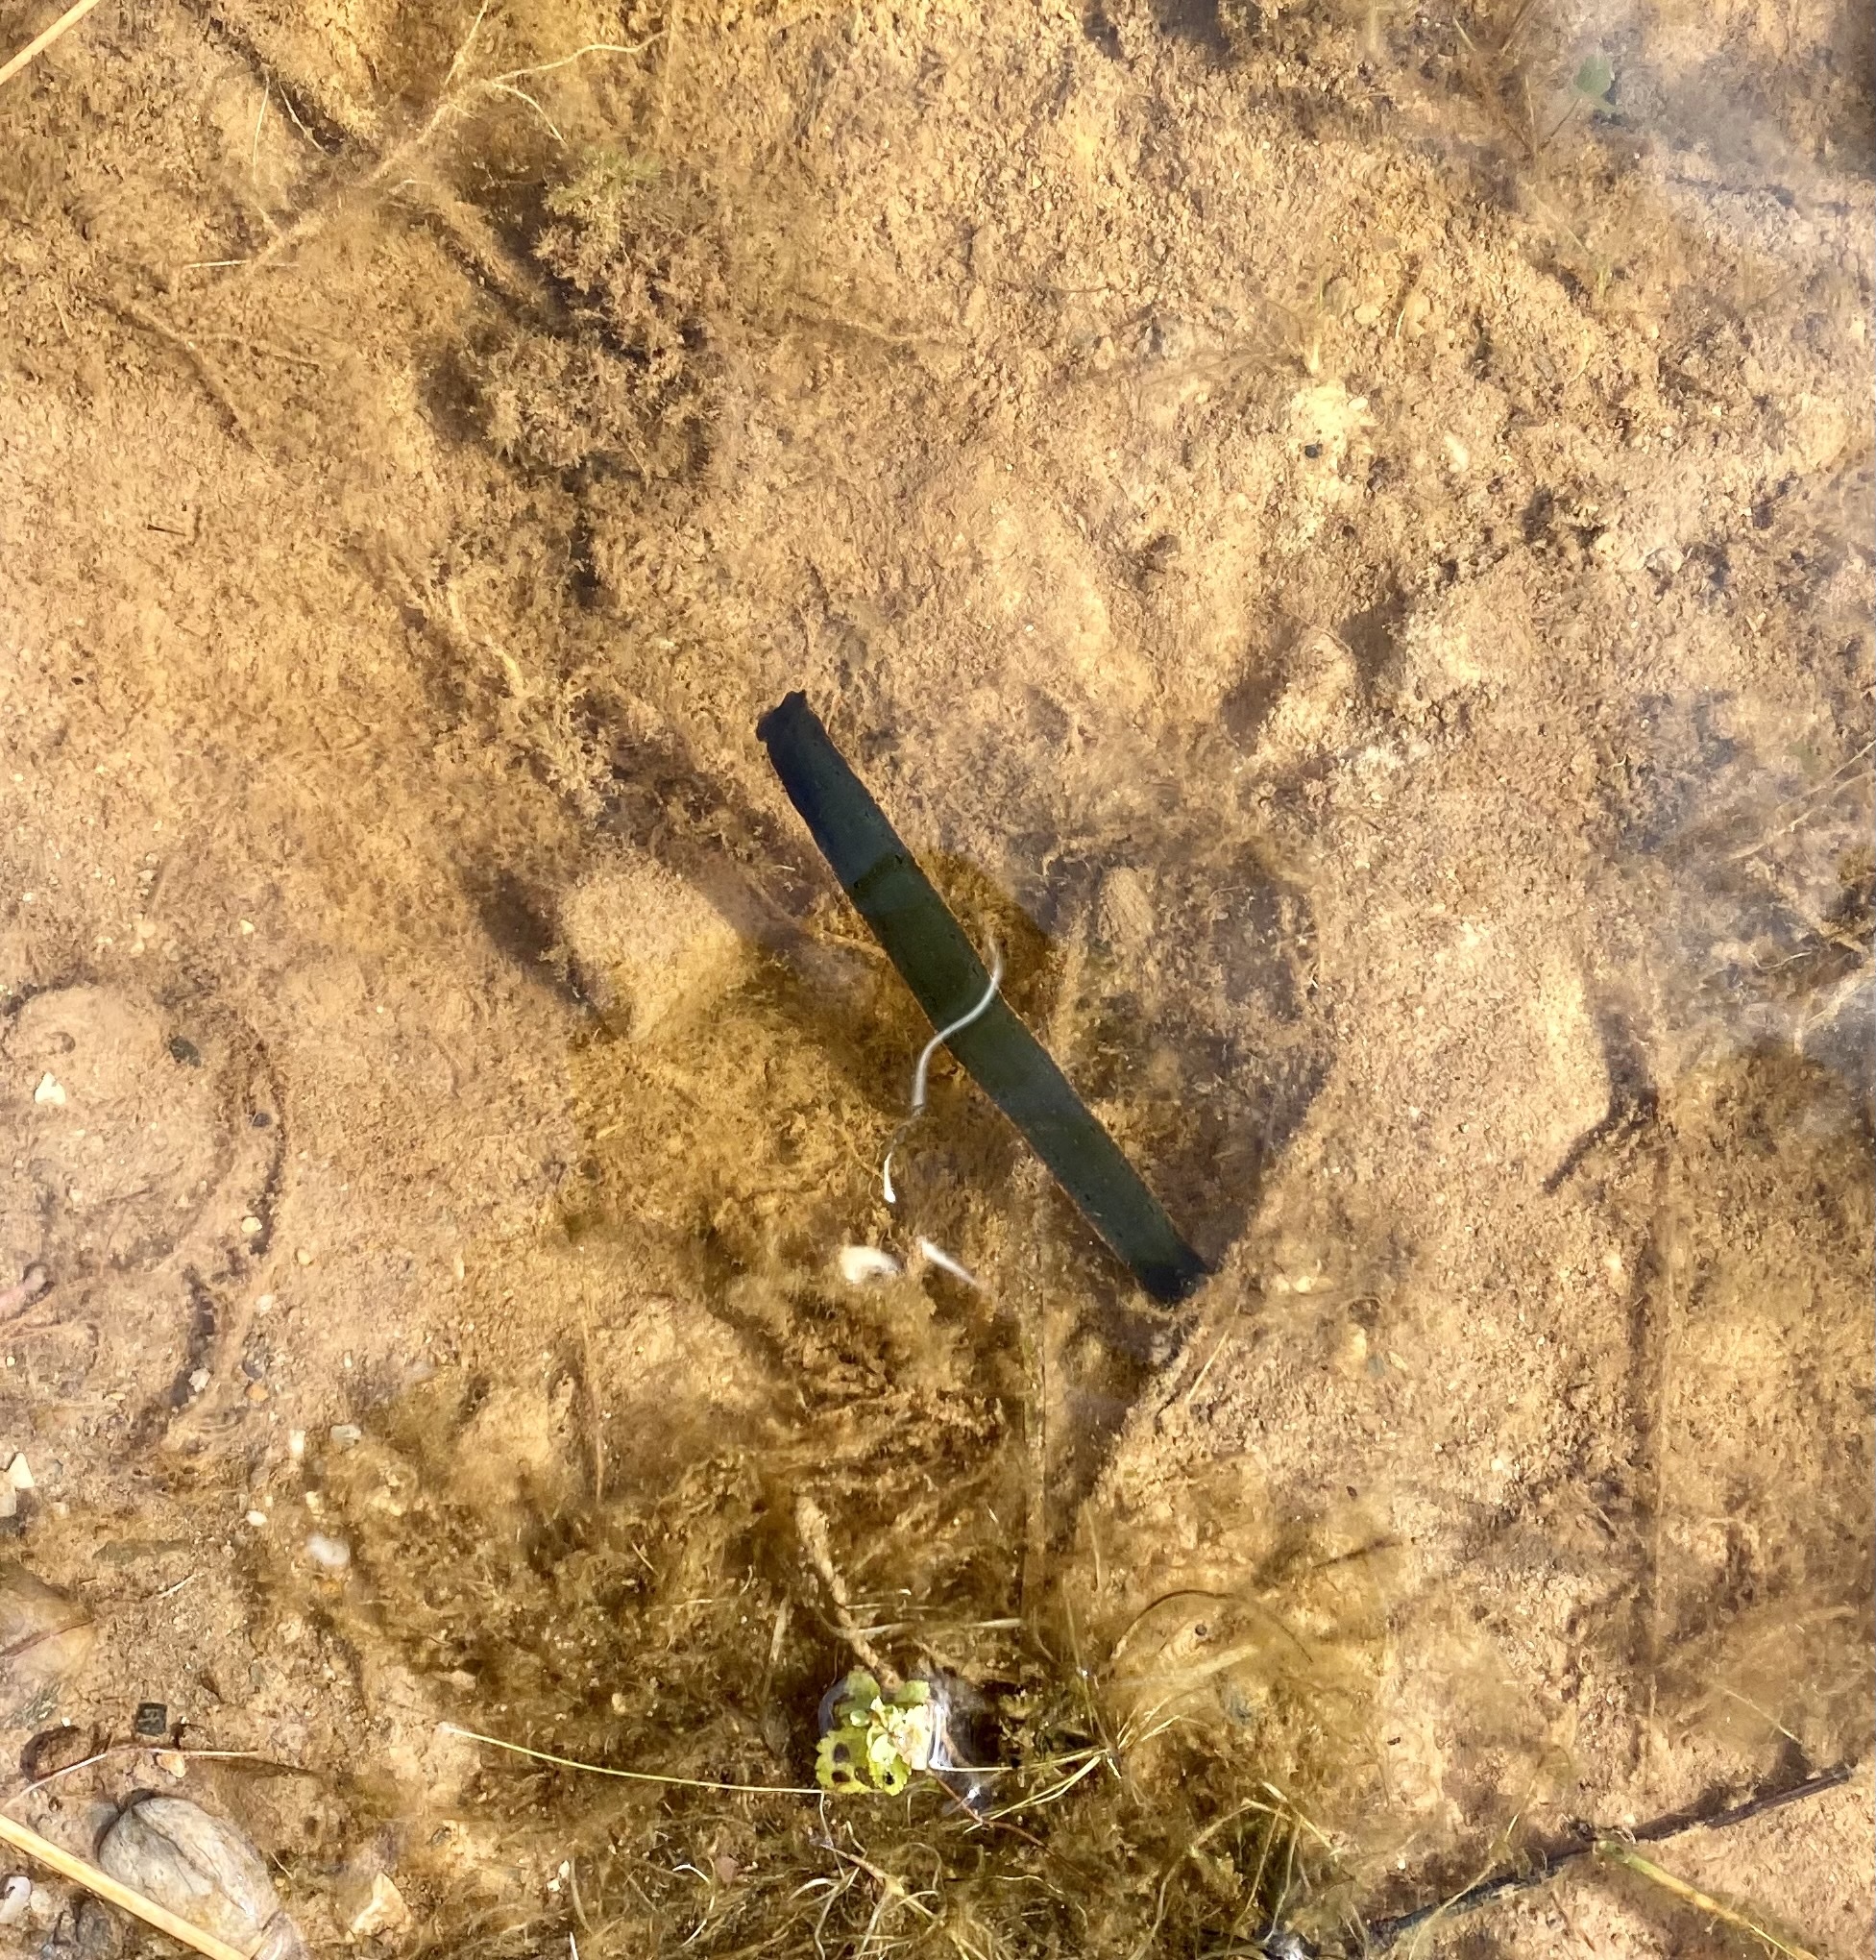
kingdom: Animalia
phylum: Annelida
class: Clitellata
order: Arhynchobdellida
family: Hirudinidae
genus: Macrobdella
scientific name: Macrobdella decora
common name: North american leech
